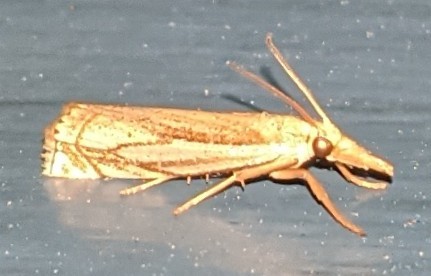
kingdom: Animalia
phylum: Arthropoda
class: Insecta
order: Lepidoptera
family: Crambidae
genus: Crambus
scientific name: Crambus saltuellus
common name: Pasture grass-veneer
